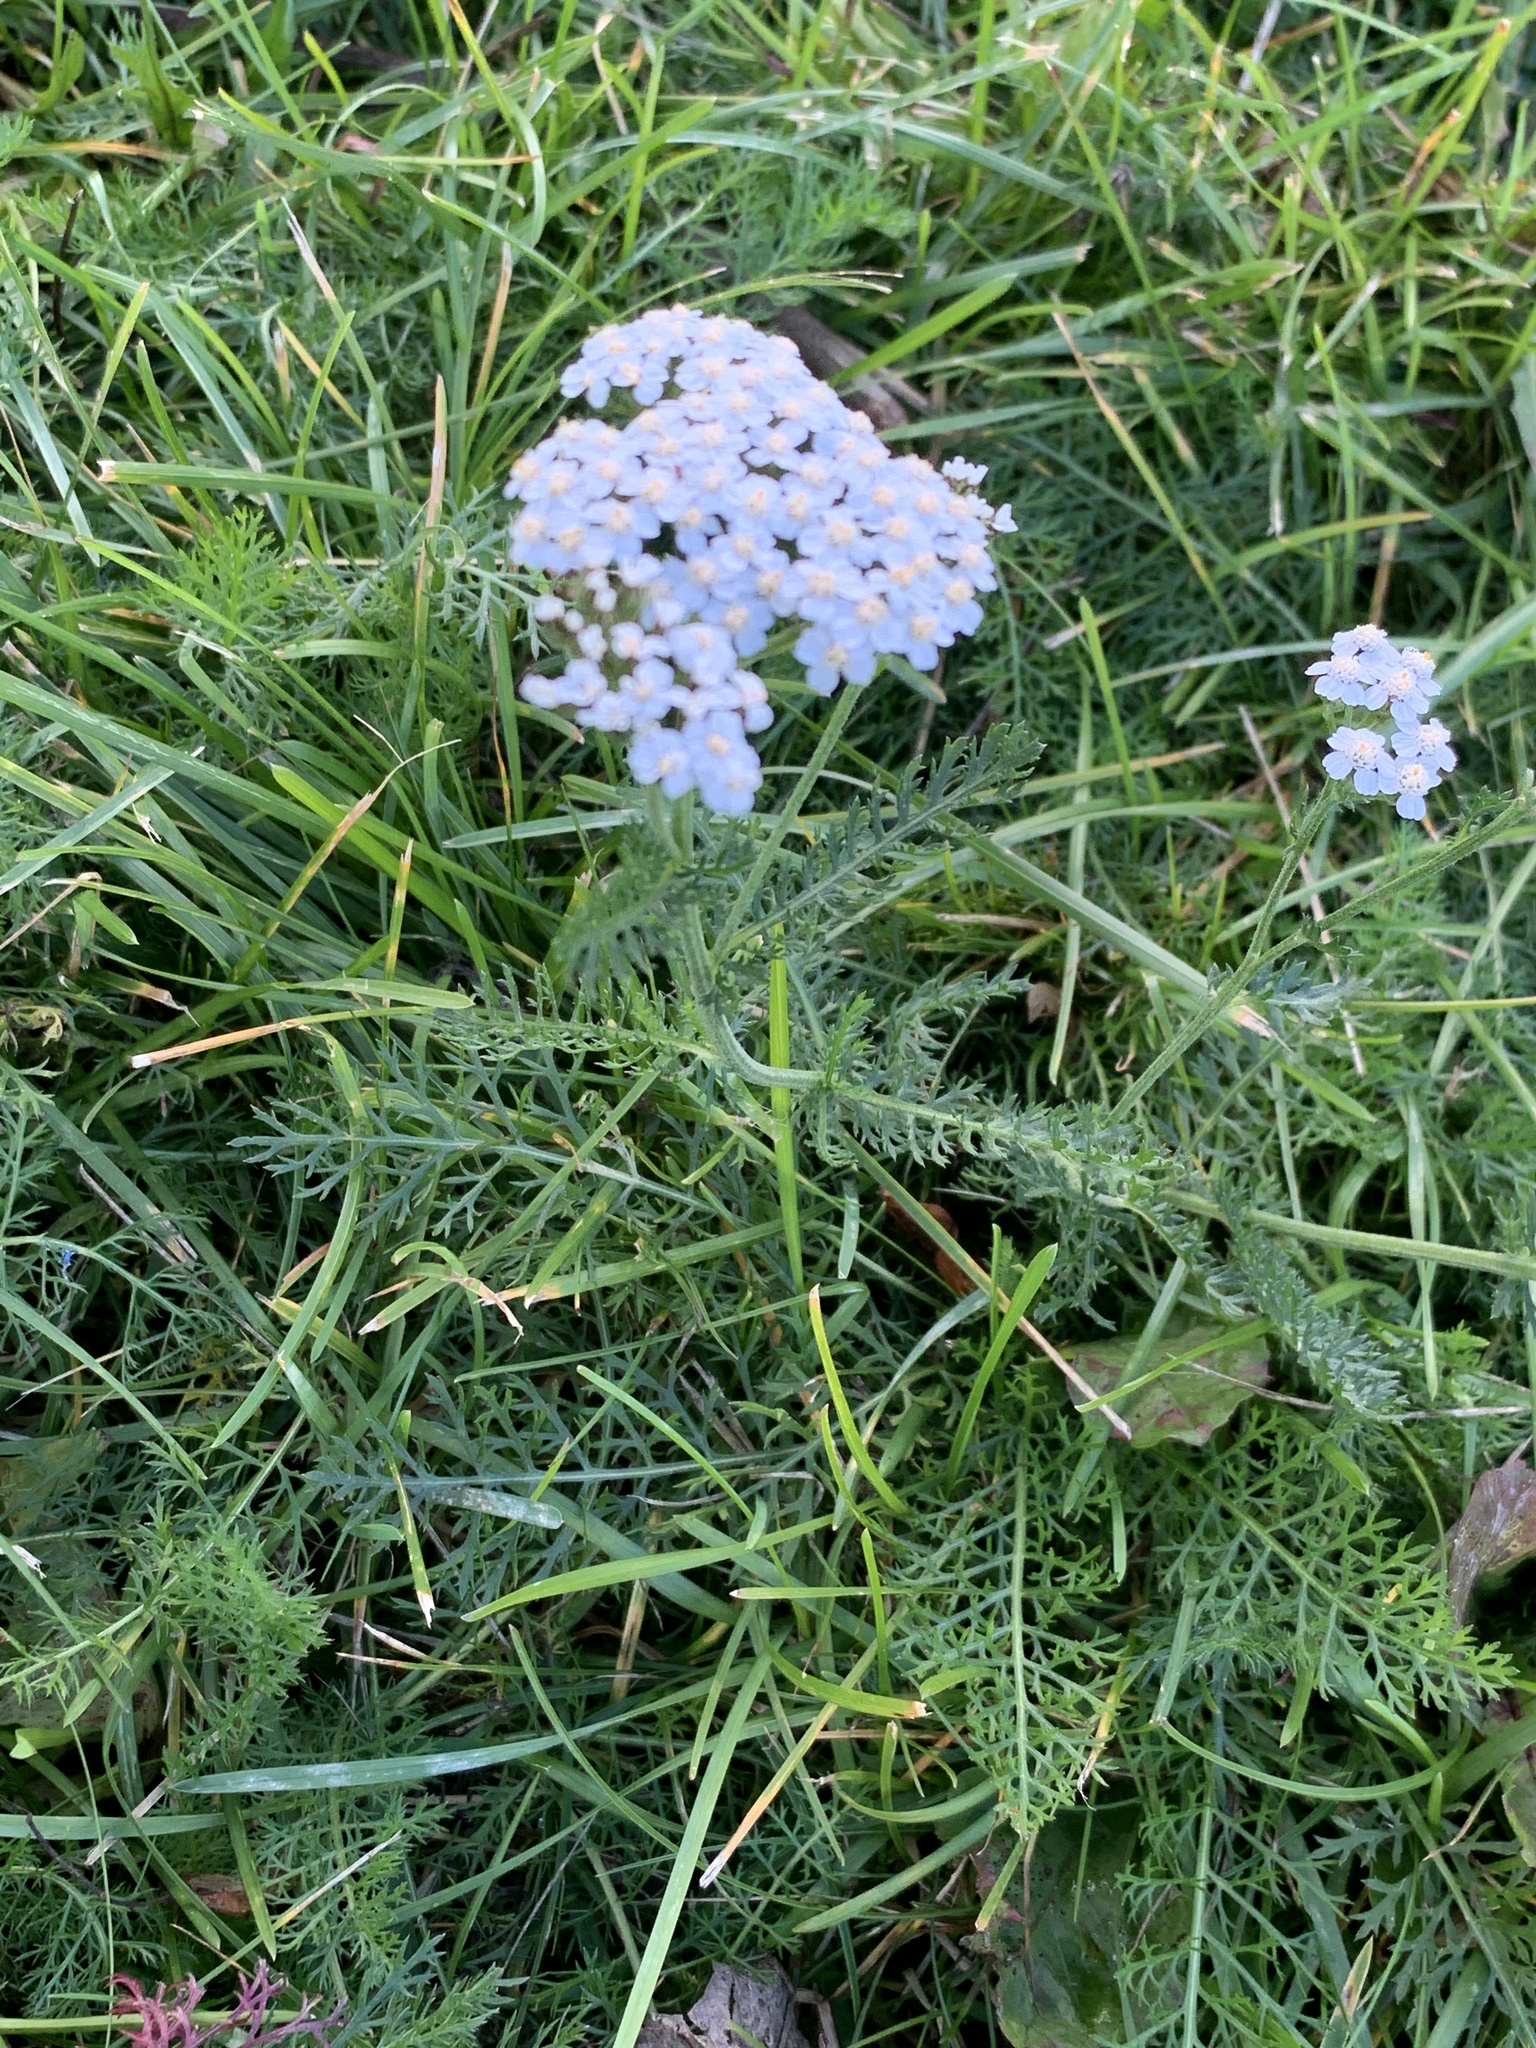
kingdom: Plantae
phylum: Tracheophyta
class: Magnoliopsida
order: Asterales
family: Asteraceae
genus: Achillea
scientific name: Achillea millefolium
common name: Yarrow
